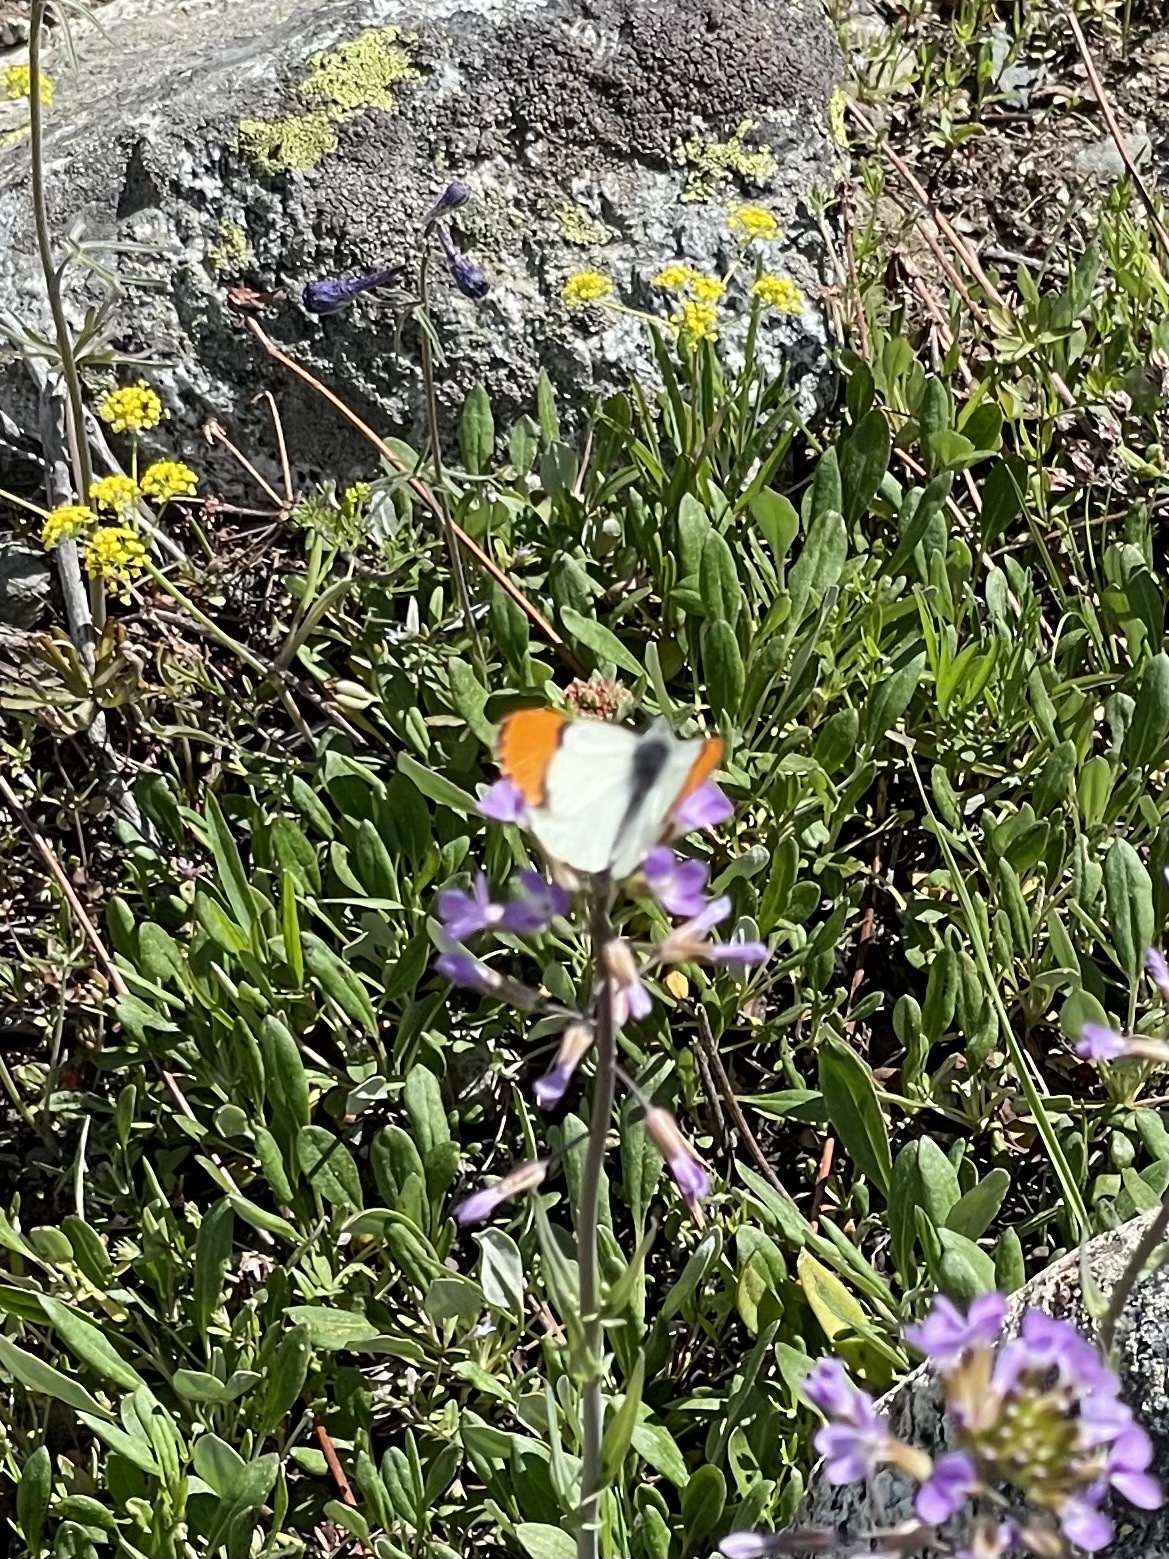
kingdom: Animalia
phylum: Arthropoda
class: Insecta
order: Lepidoptera
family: Pieridae
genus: Anthocharis
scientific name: Anthocharis julia
